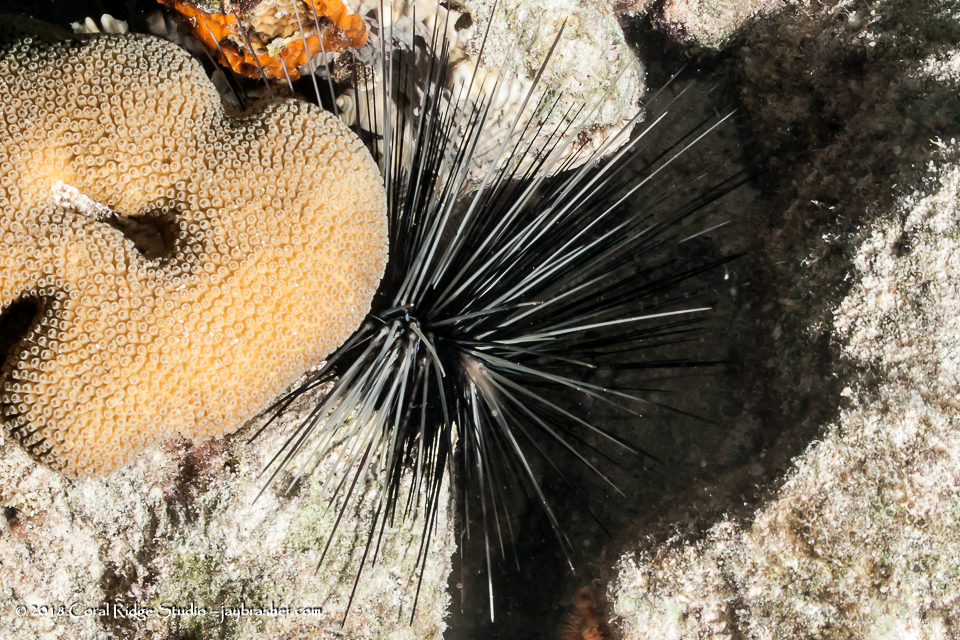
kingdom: Animalia
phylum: Echinodermata
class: Echinoidea
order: Diadematoida
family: Diadematidae
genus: Diadema
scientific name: Diadema antillarum
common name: Spiny urchin
